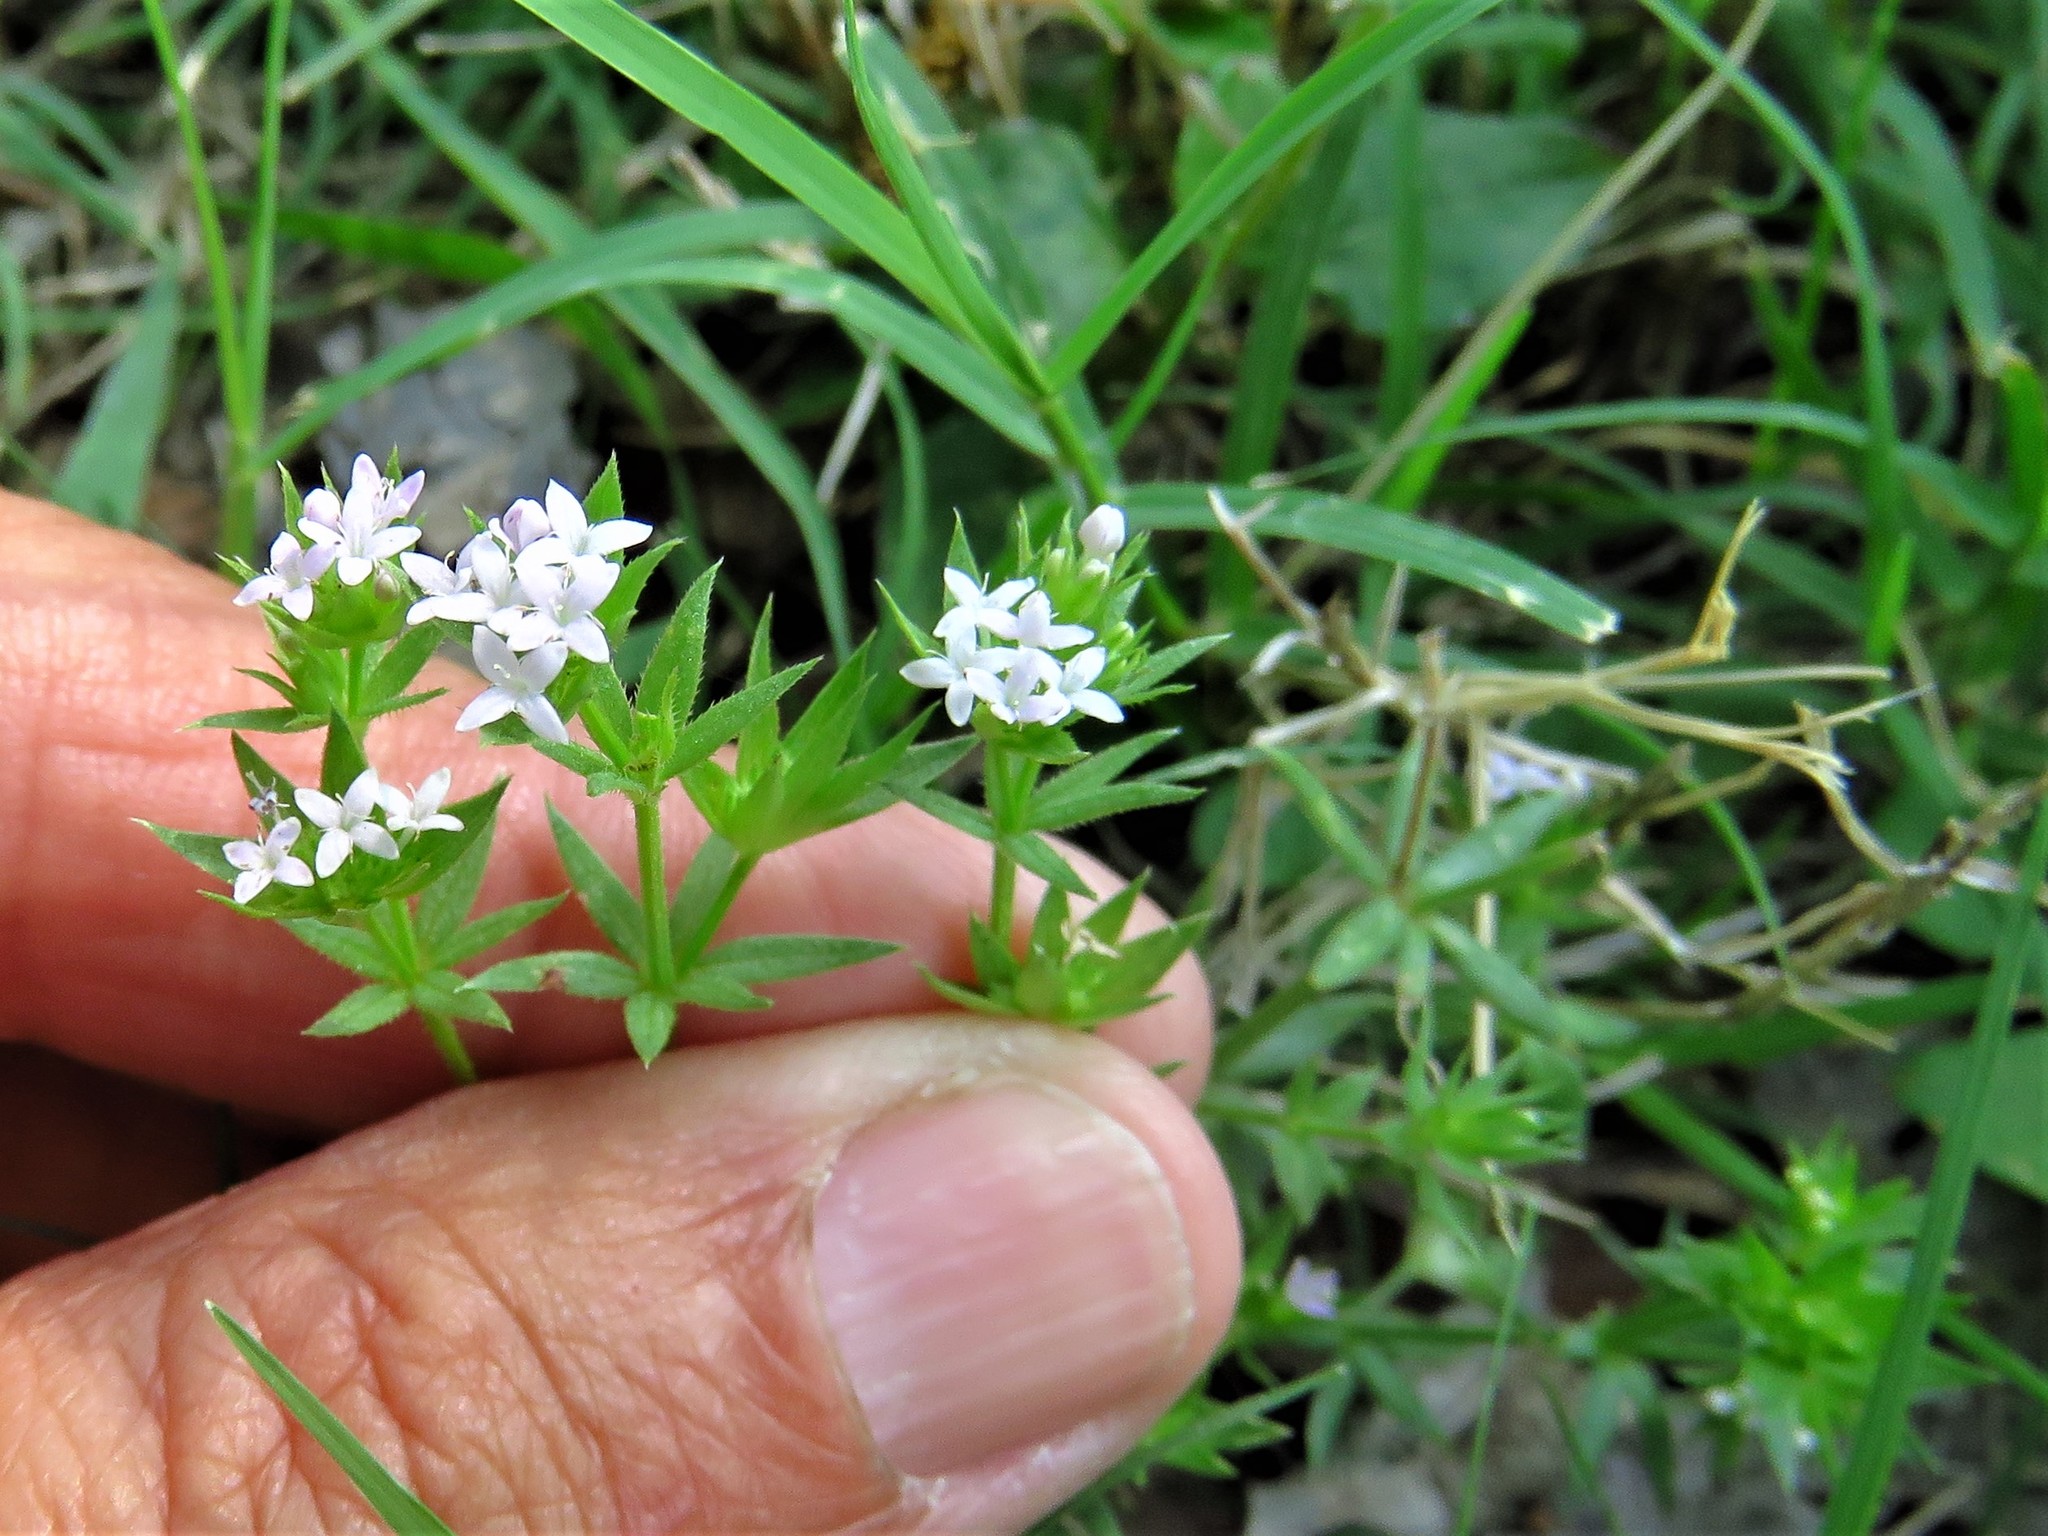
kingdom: Plantae
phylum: Tracheophyta
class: Magnoliopsida
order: Gentianales
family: Rubiaceae
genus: Sherardia
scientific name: Sherardia arvensis
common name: Field madder
